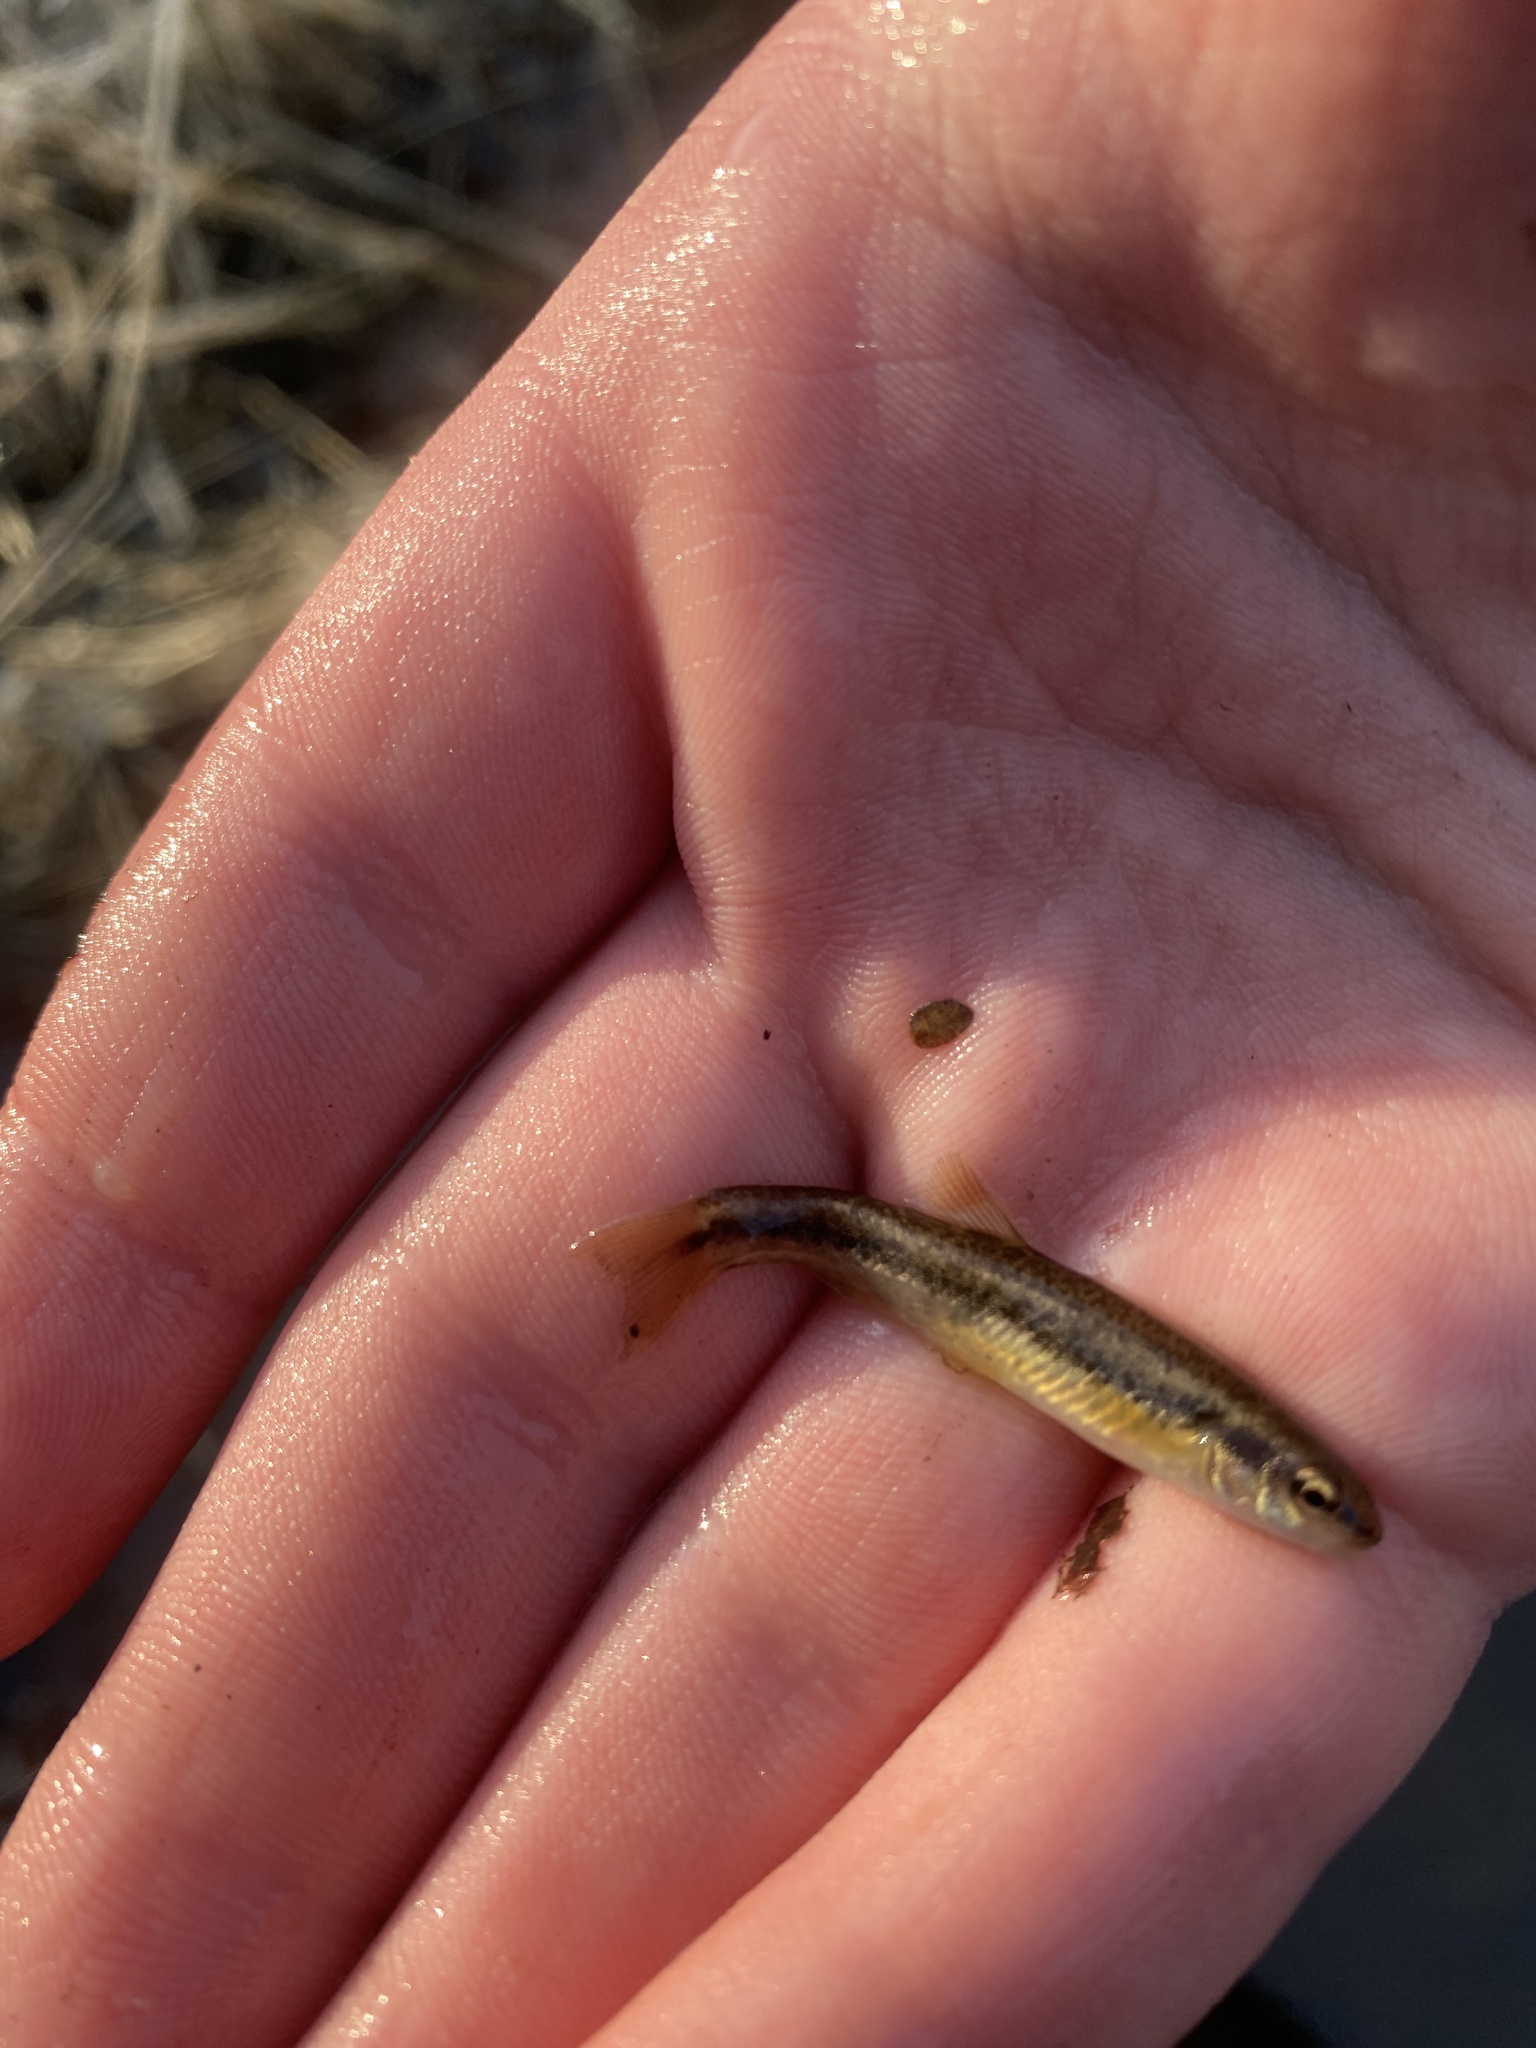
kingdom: Animalia
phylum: Chordata
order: Cypriniformes
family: Cyprinidae
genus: Rhinichthys
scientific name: Rhinichthys obtusus
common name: Western blacknose dace
